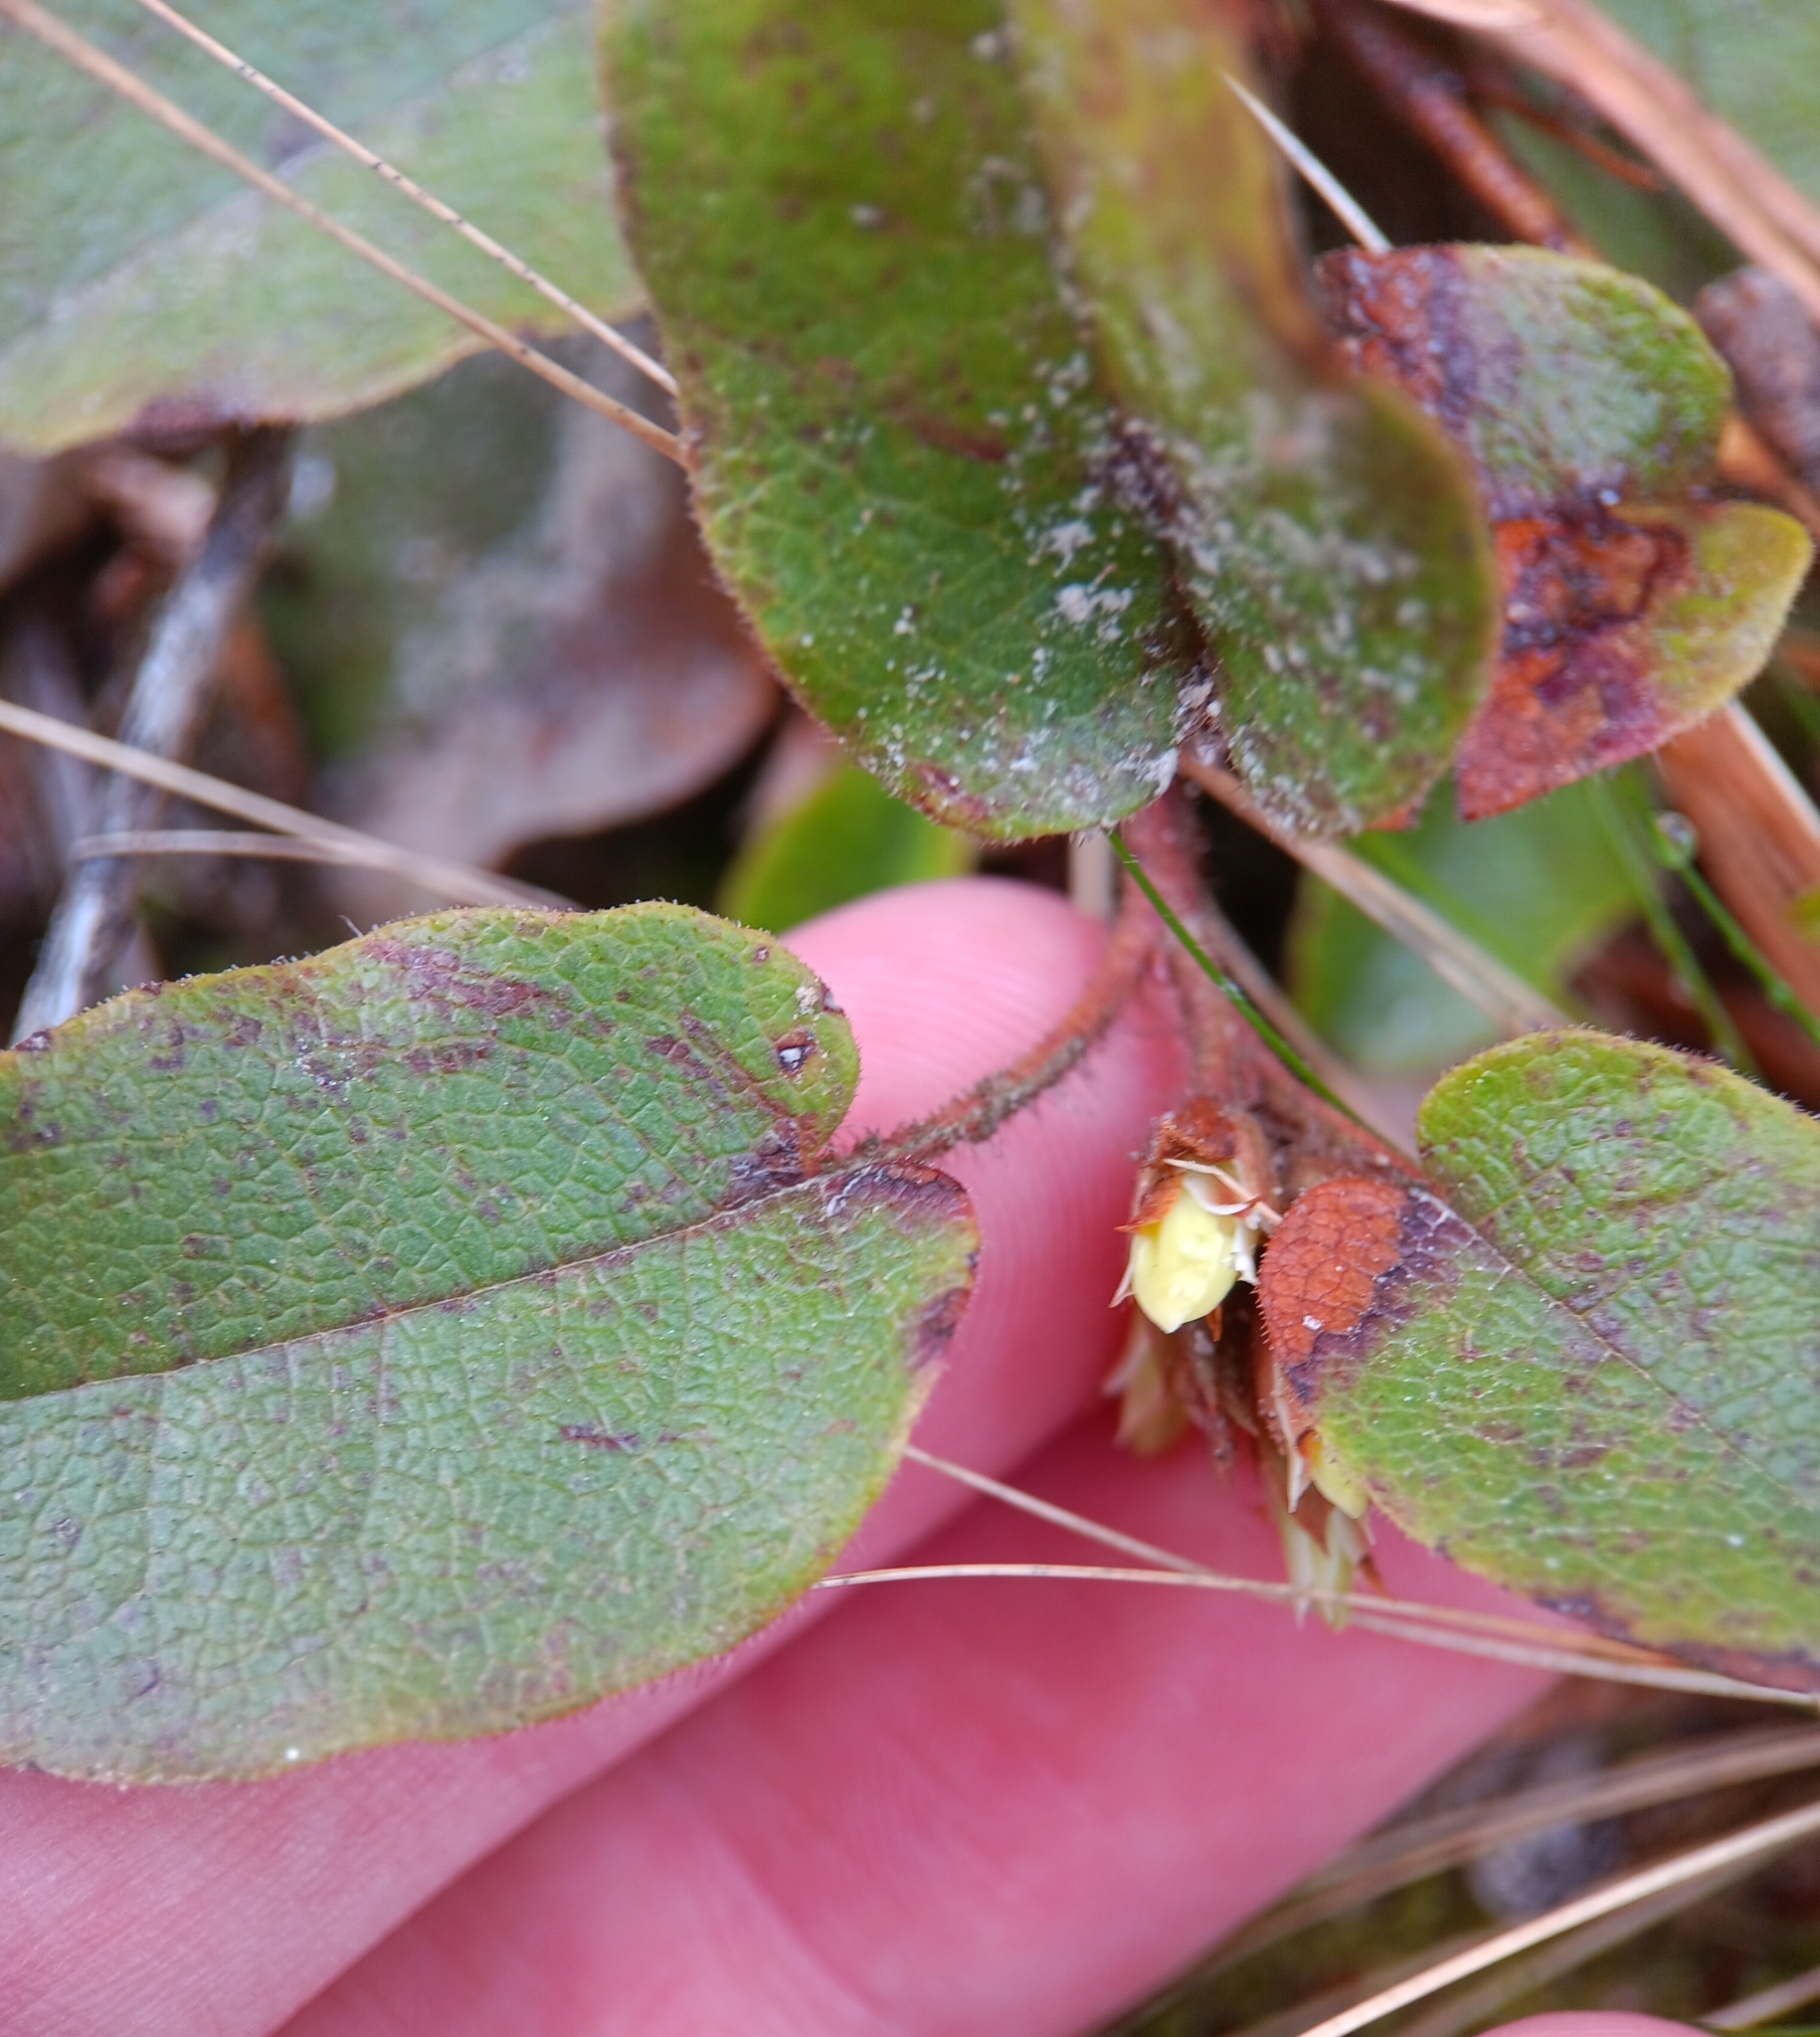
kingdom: Plantae
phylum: Tracheophyta
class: Magnoliopsida
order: Ericales
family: Ericaceae
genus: Epigaea
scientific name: Epigaea repens
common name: Gravelroot
